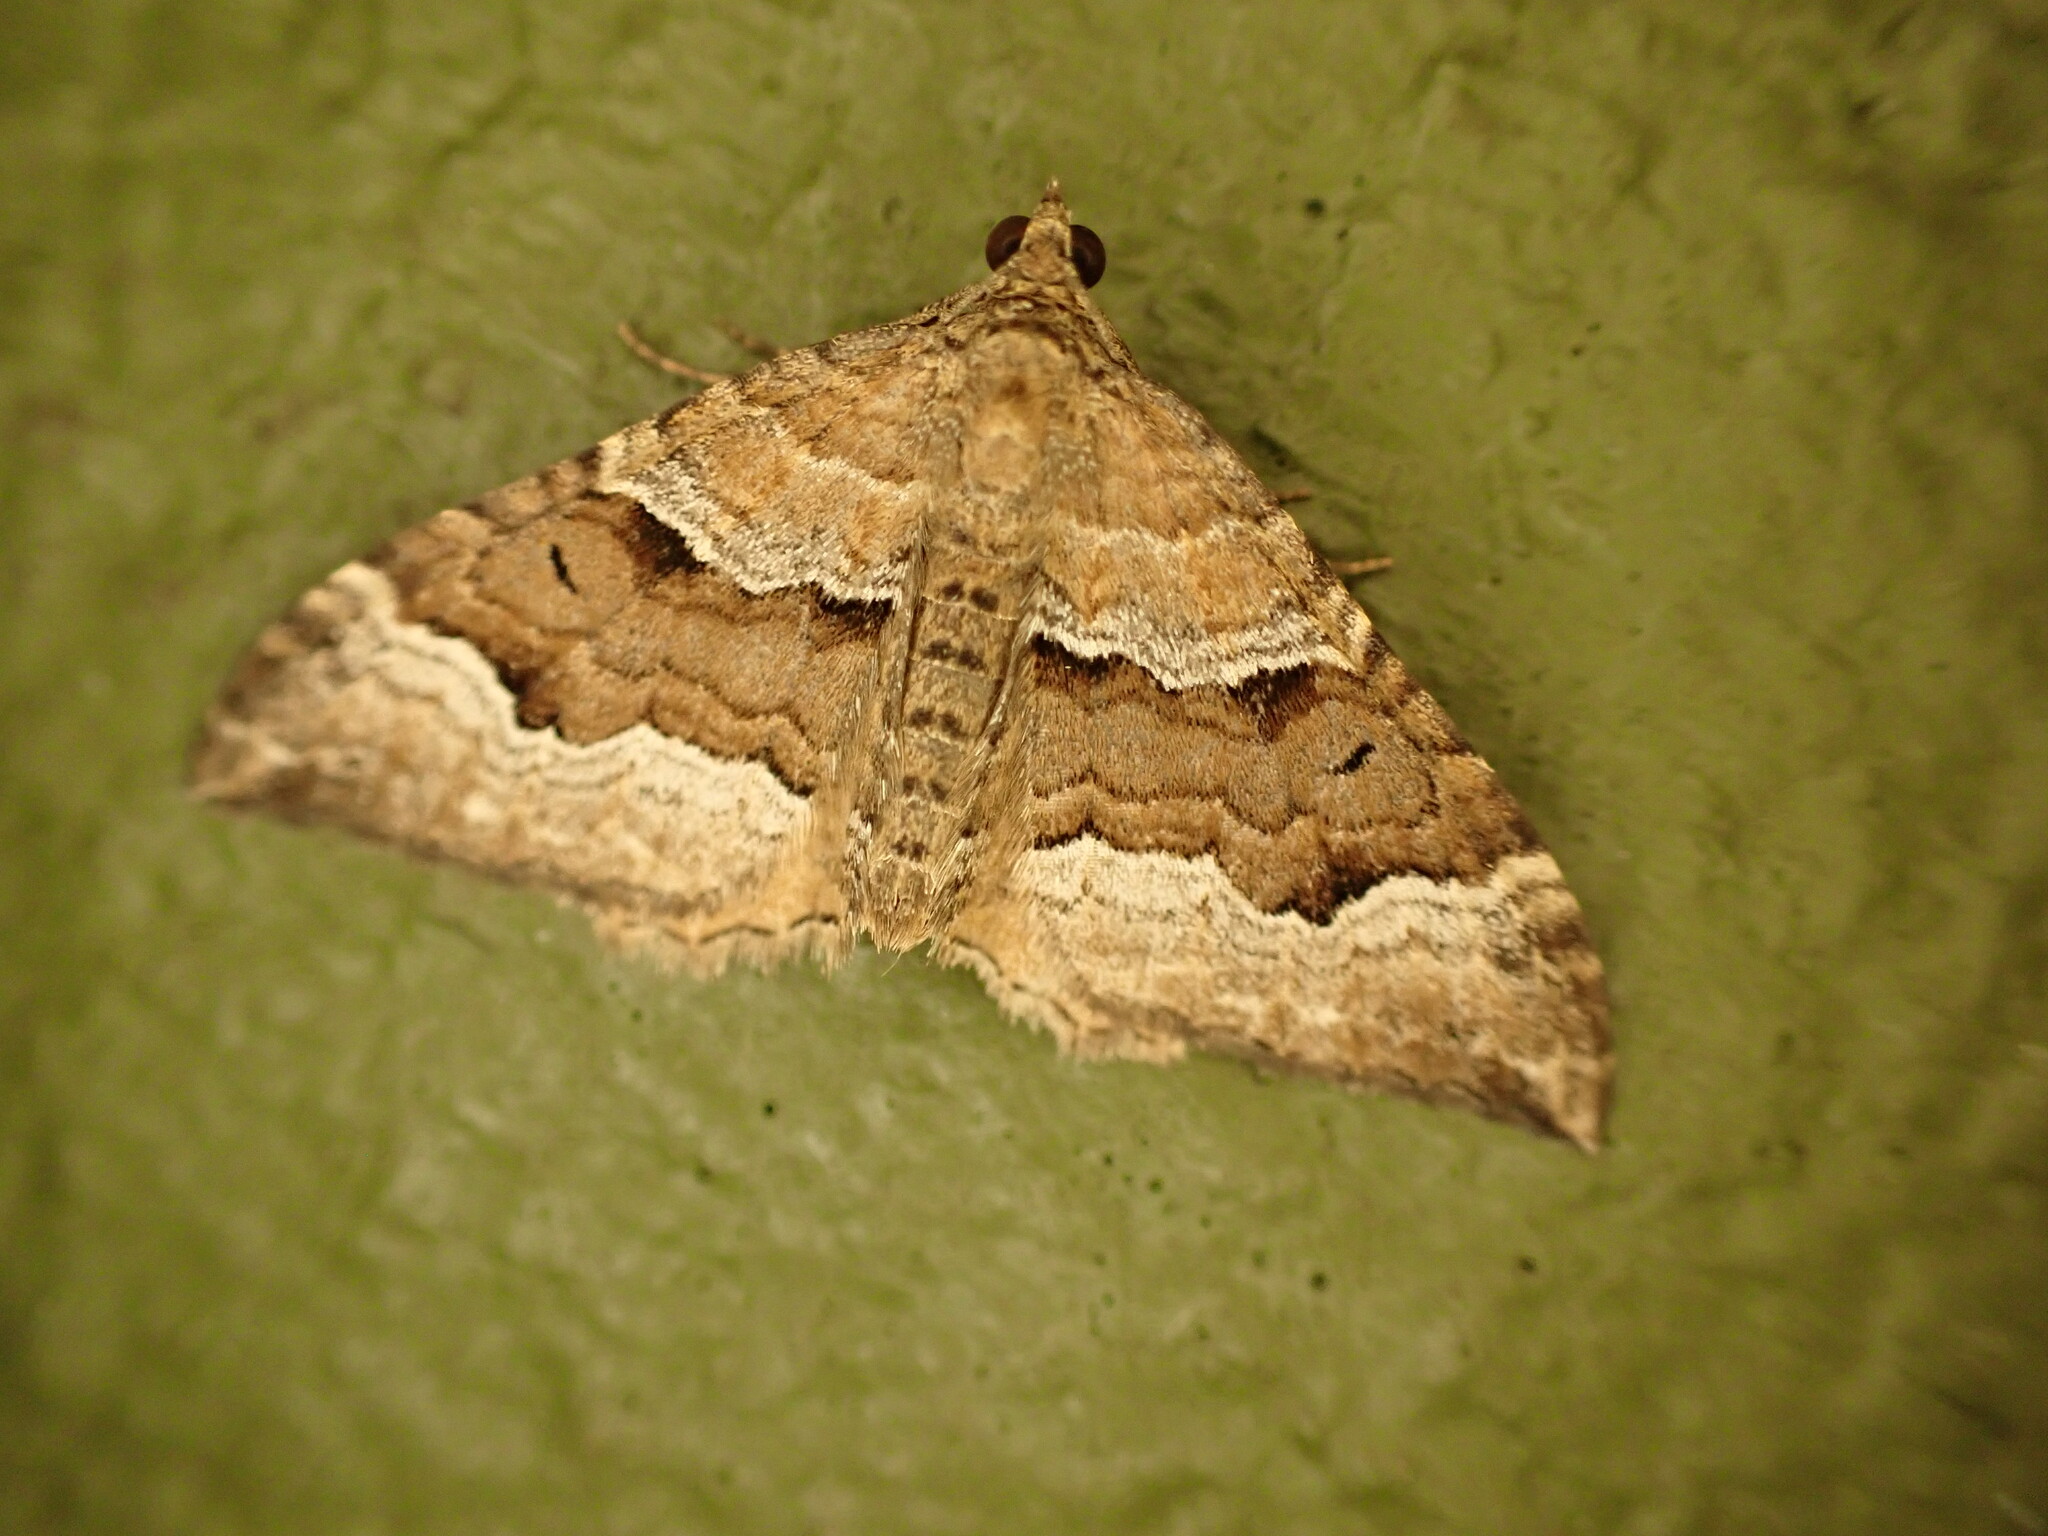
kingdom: Animalia
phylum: Arthropoda
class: Insecta
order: Lepidoptera
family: Geometridae
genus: Hydriomena
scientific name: Hydriomena deltoidata
